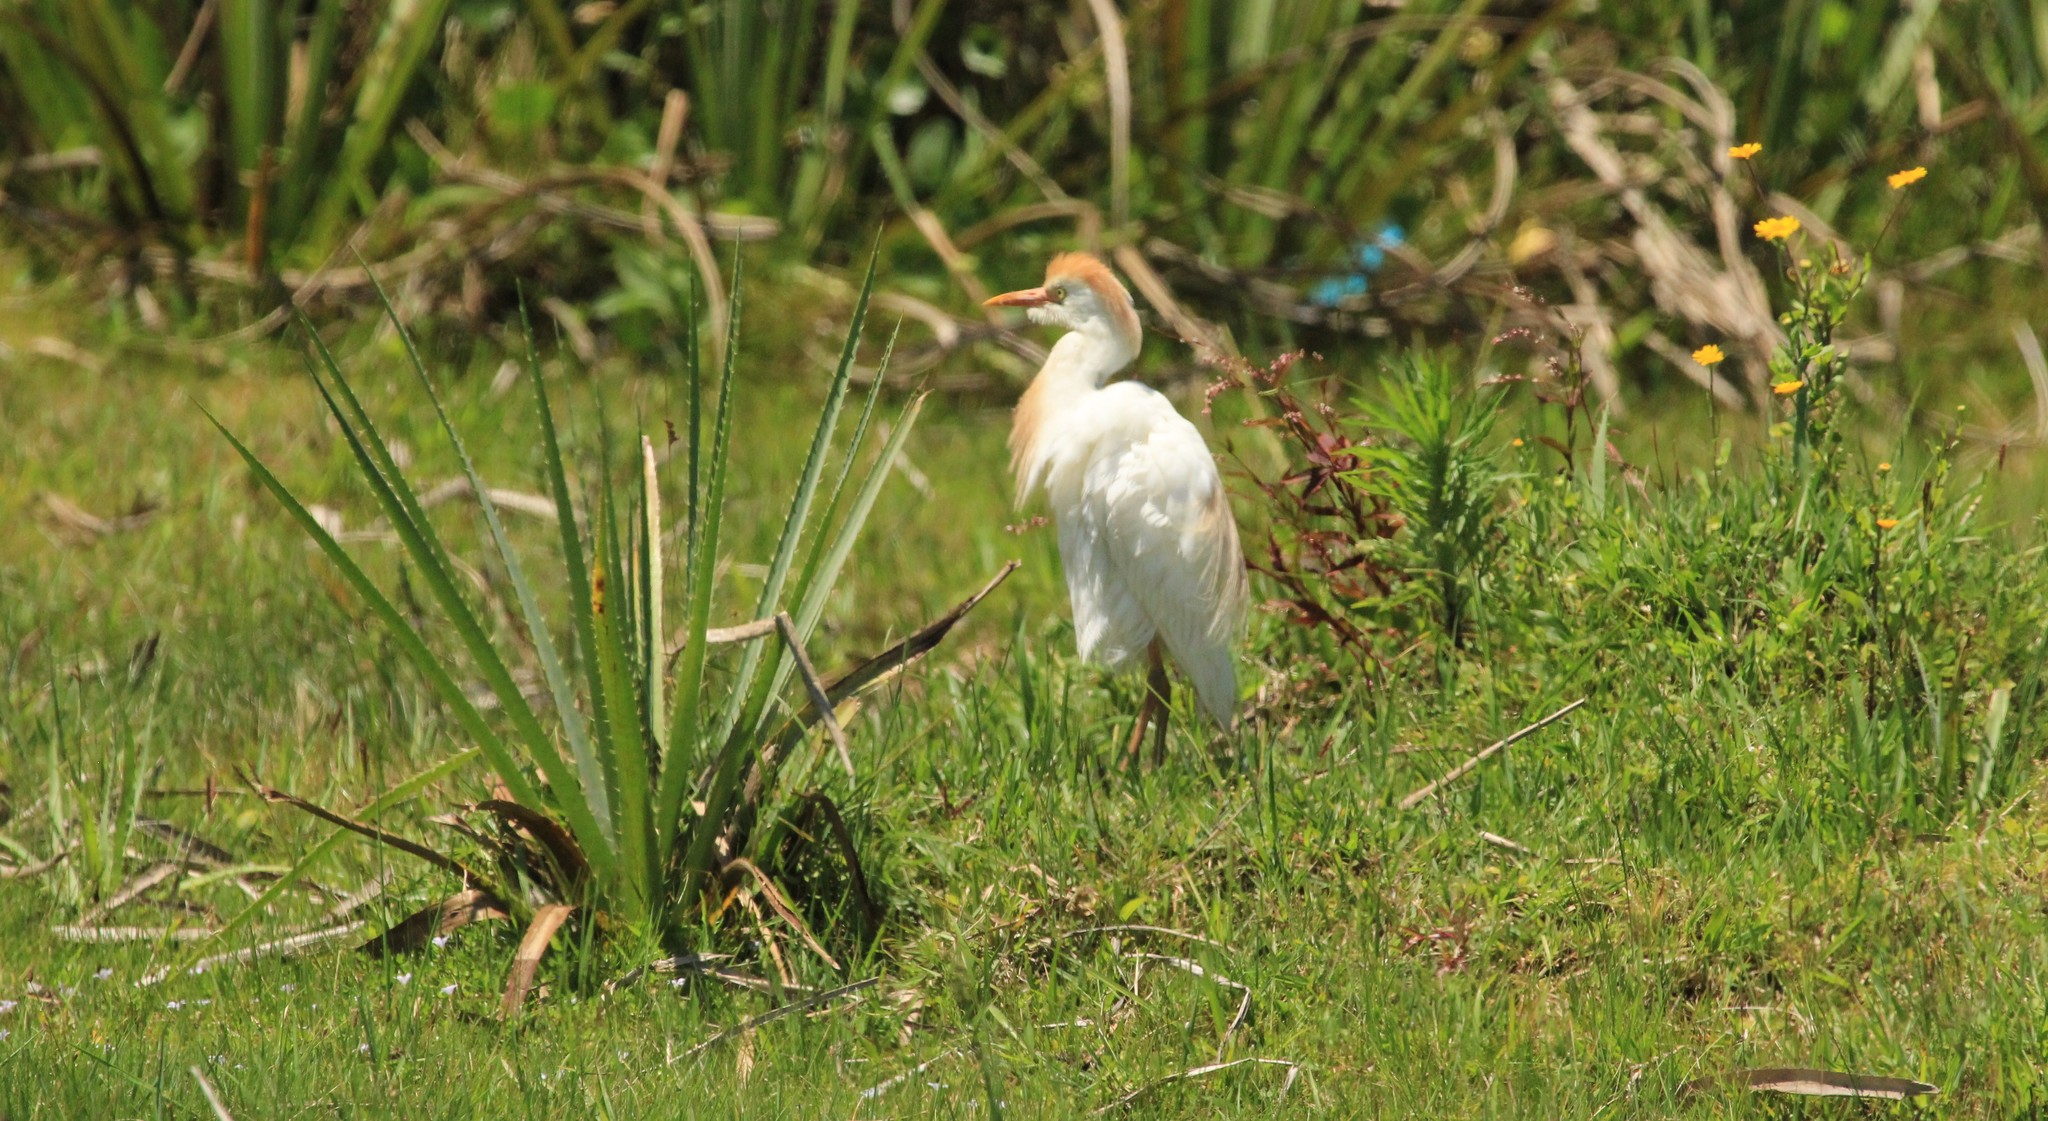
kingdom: Animalia
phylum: Chordata
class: Aves
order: Pelecaniformes
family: Ardeidae
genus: Bubulcus
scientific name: Bubulcus ibis
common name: Cattle egret
